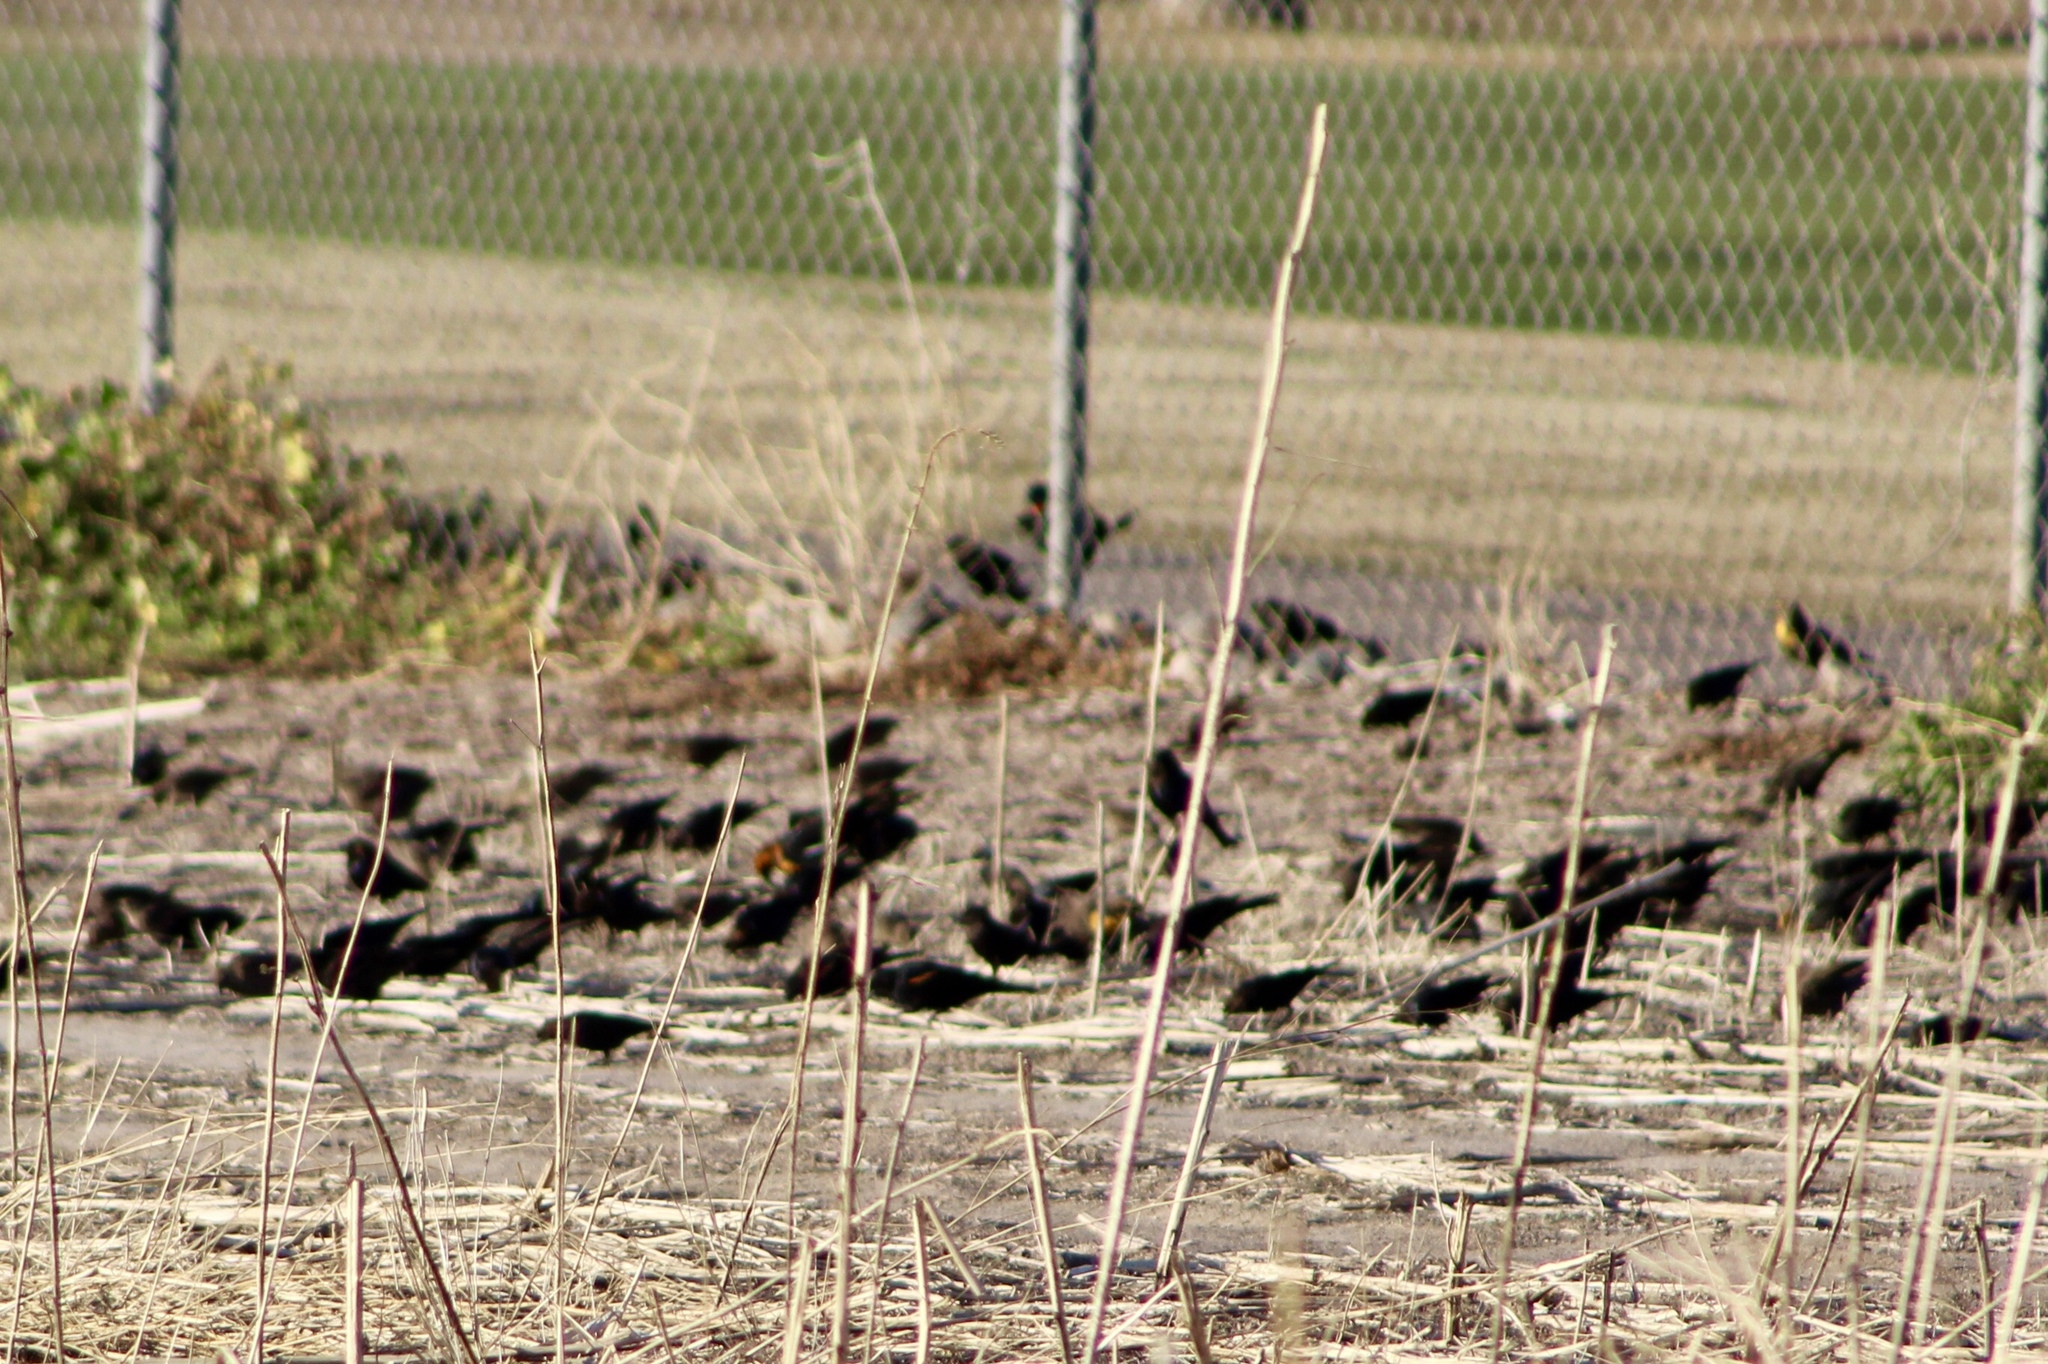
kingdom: Animalia
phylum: Chordata
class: Aves
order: Passeriformes
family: Icteridae
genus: Molothrus
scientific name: Molothrus ater
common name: Brown-headed cowbird
